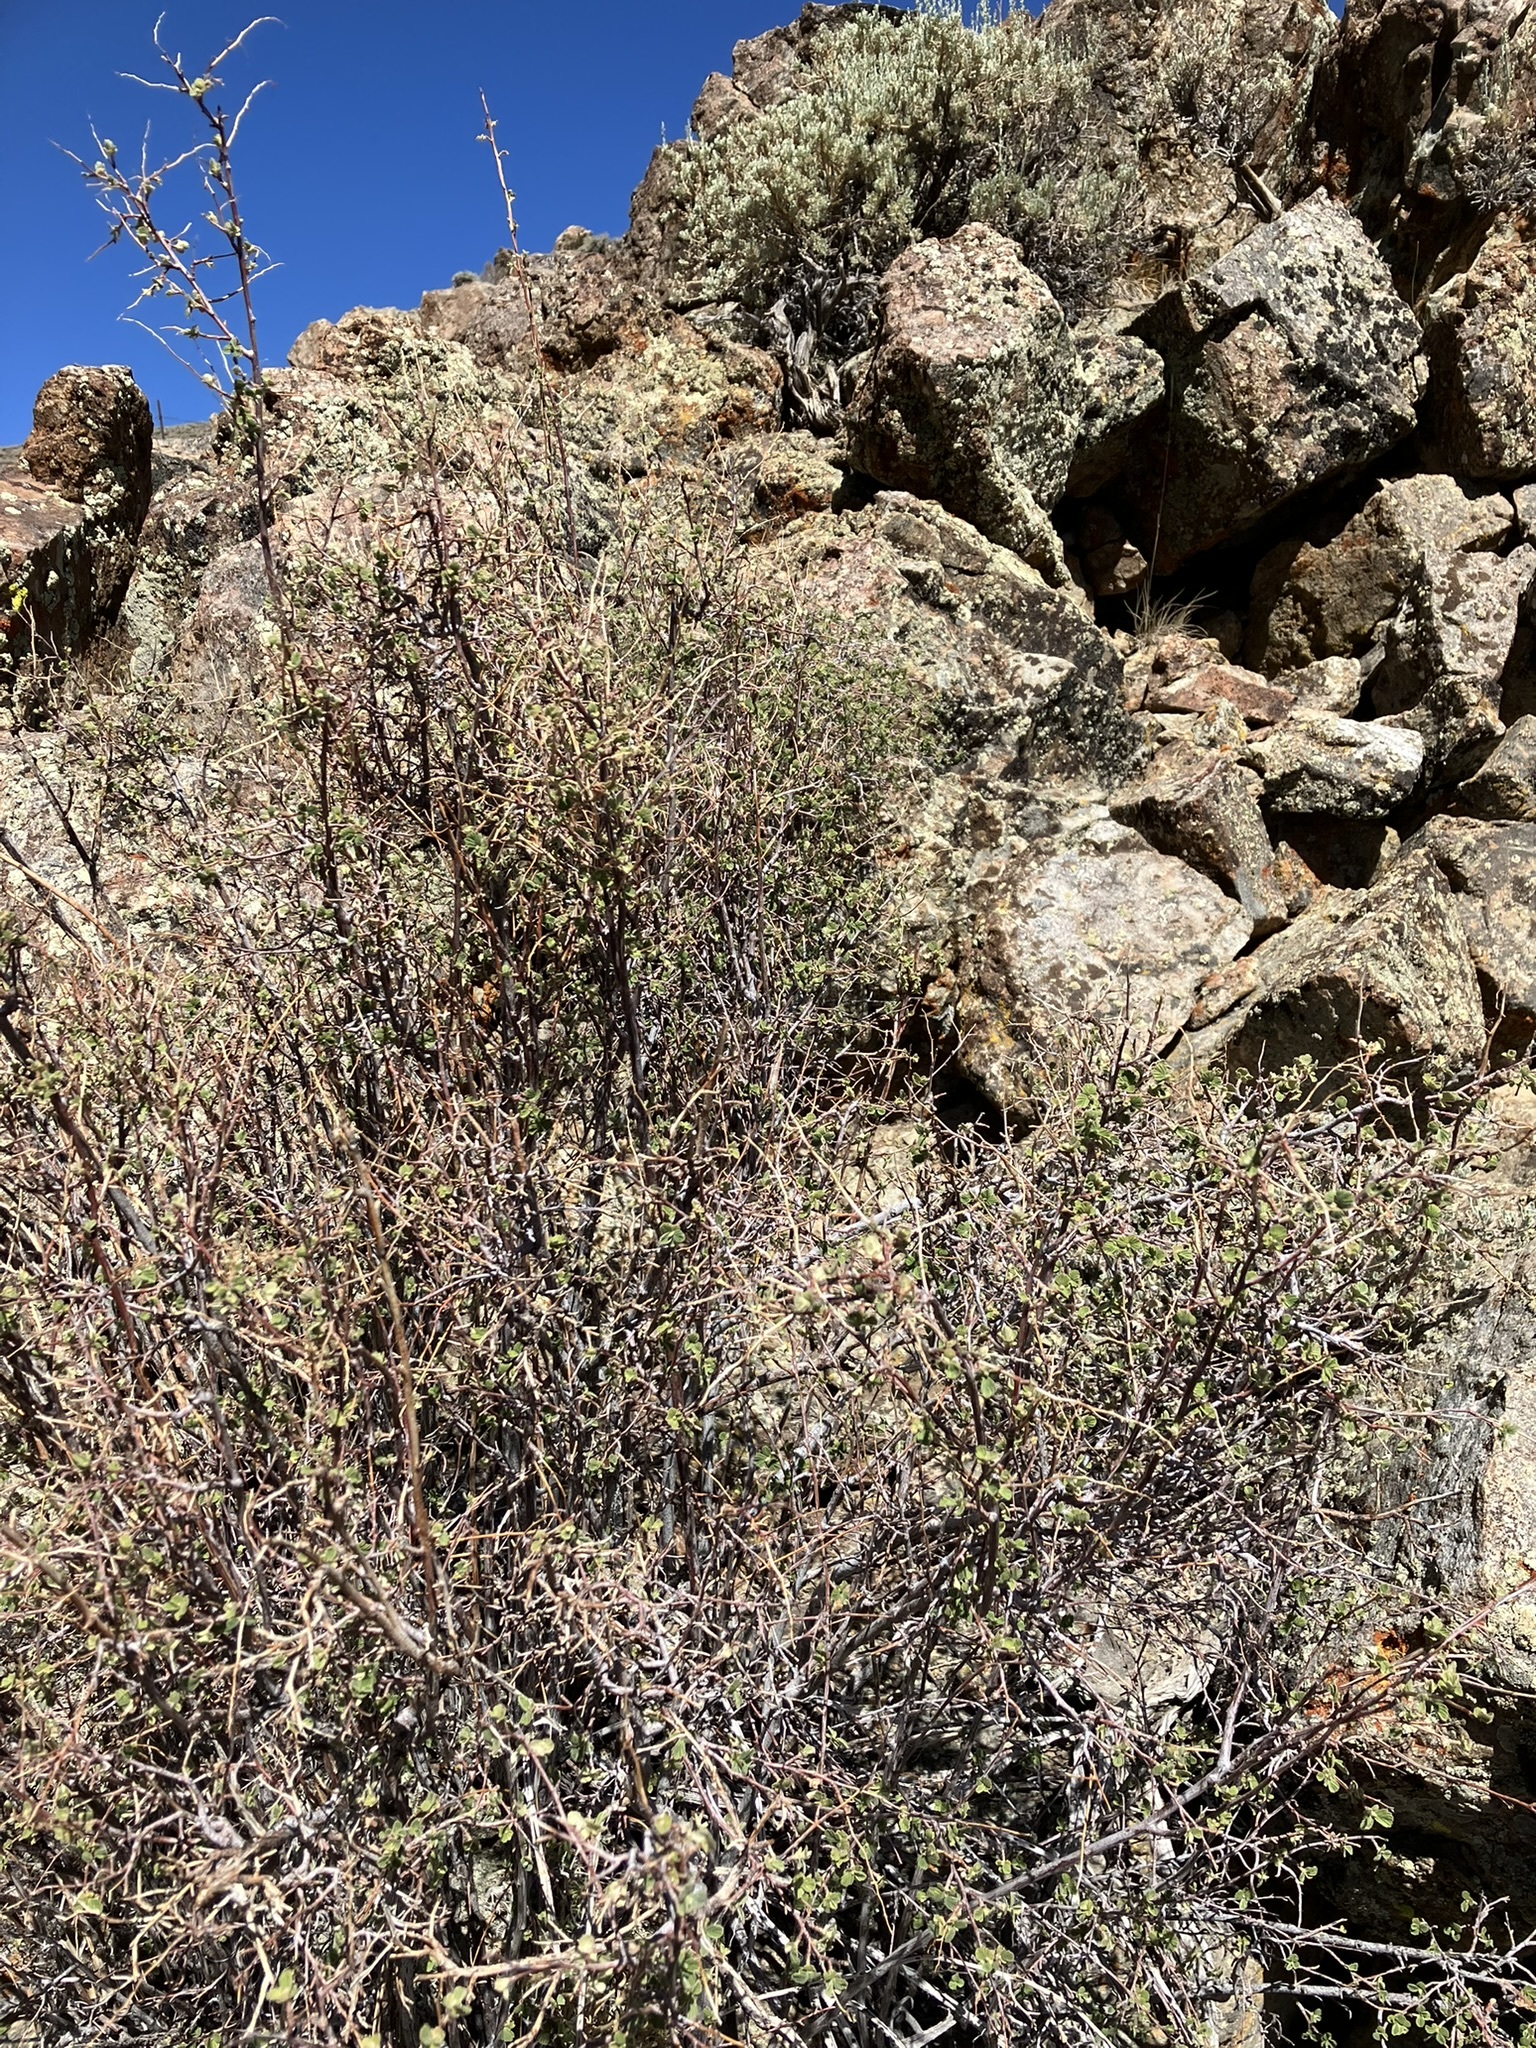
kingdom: Plantae
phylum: Tracheophyta
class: Magnoliopsida
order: Rosales
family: Rosaceae
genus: Holodiscus
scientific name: Holodiscus discolor
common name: Oceanspray
